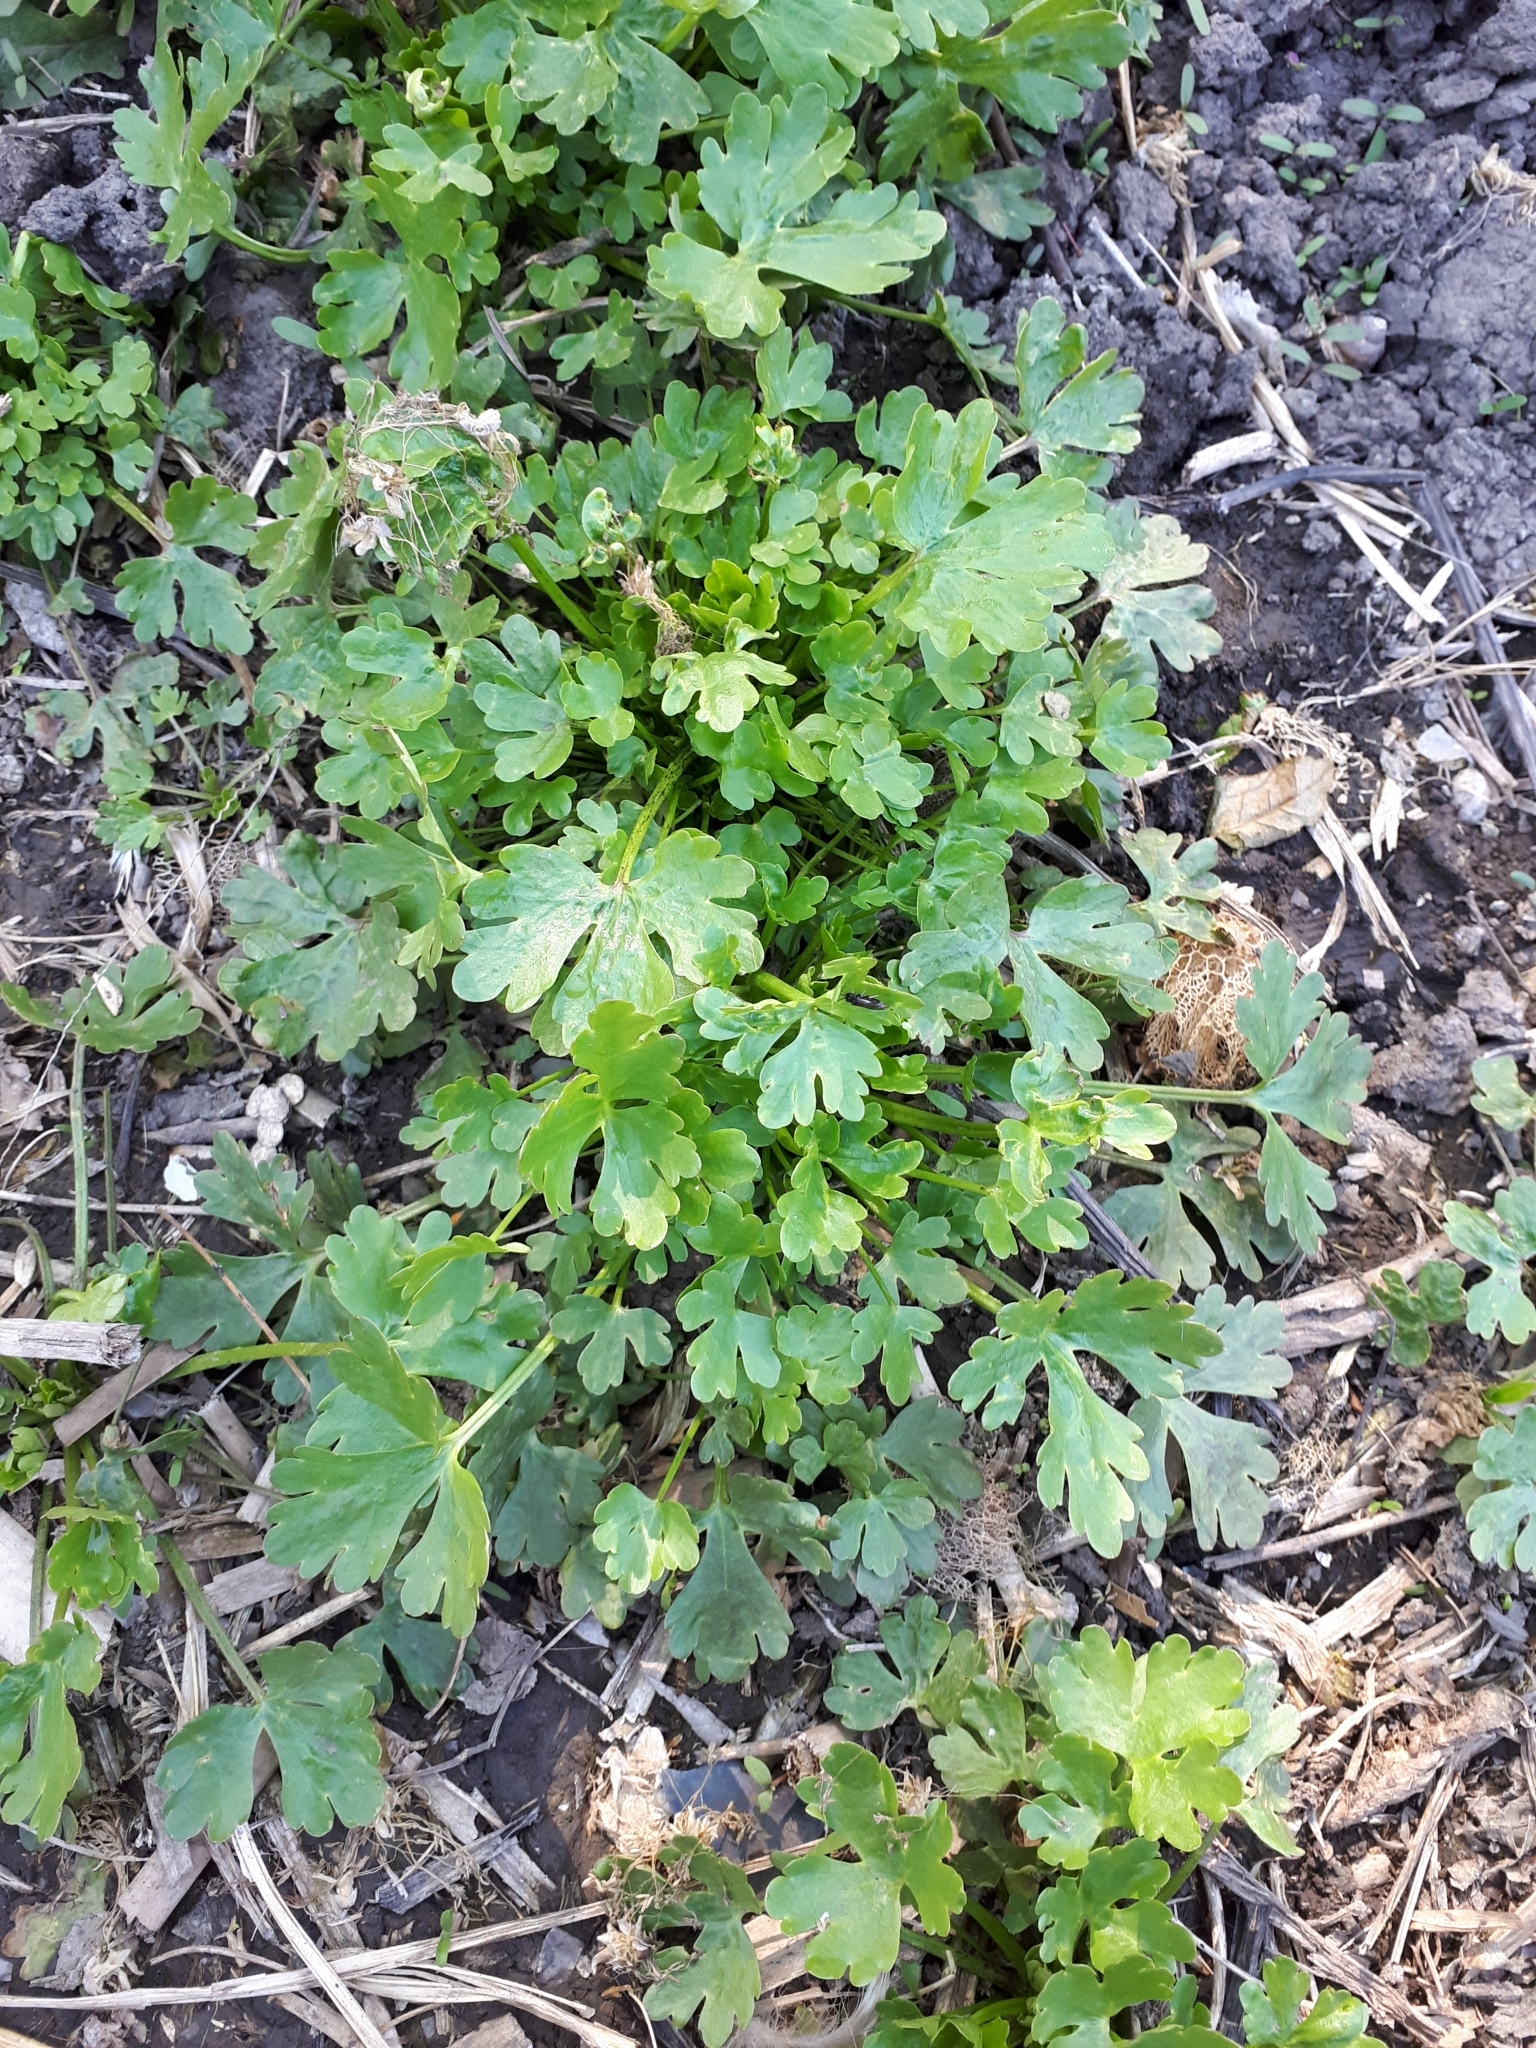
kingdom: Plantae
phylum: Tracheophyta
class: Magnoliopsida
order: Ranunculales
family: Ranunculaceae
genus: Ranunculus
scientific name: Ranunculus sceleratus
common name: Celery-leaved buttercup
